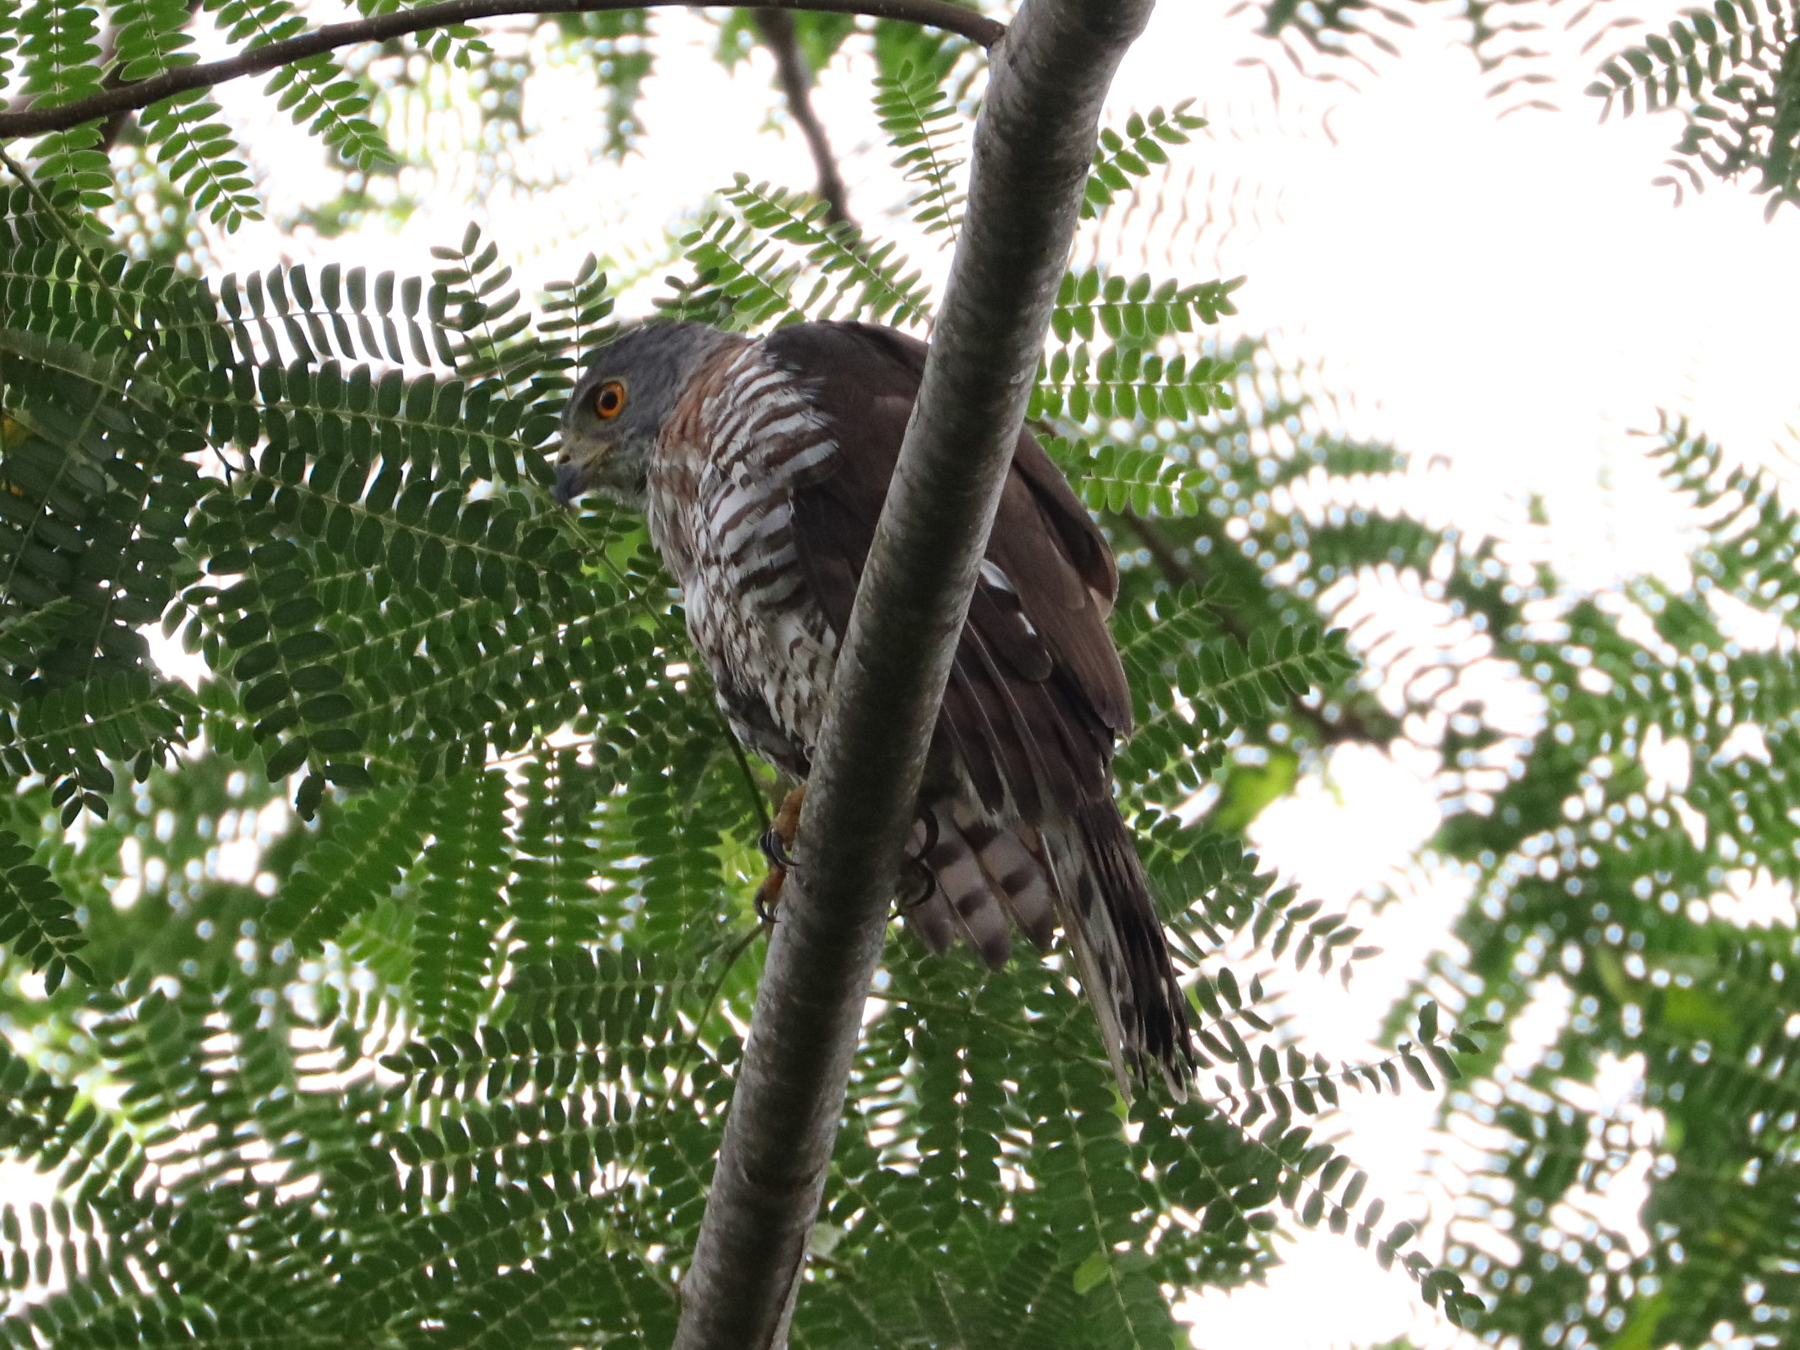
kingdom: Animalia
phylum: Chordata
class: Aves
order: Accipitriformes
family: Accipitridae
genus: Accipiter
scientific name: Accipiter trivirgatus
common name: Crested goshawk
